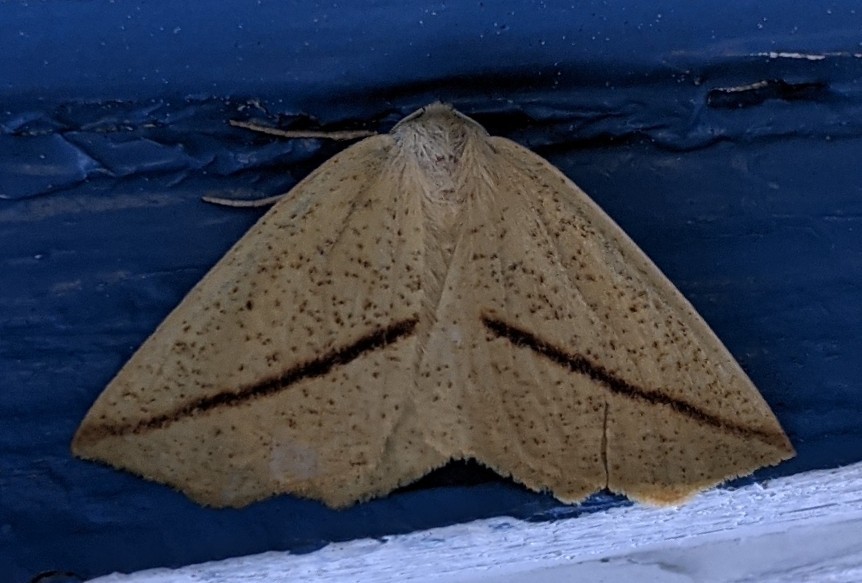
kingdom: Animalia
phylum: Arthropoda
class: Insecta
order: Lepidoptera
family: Geometridae
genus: Tetracis
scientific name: Tetracis crocallata
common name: Yellow slant-line
